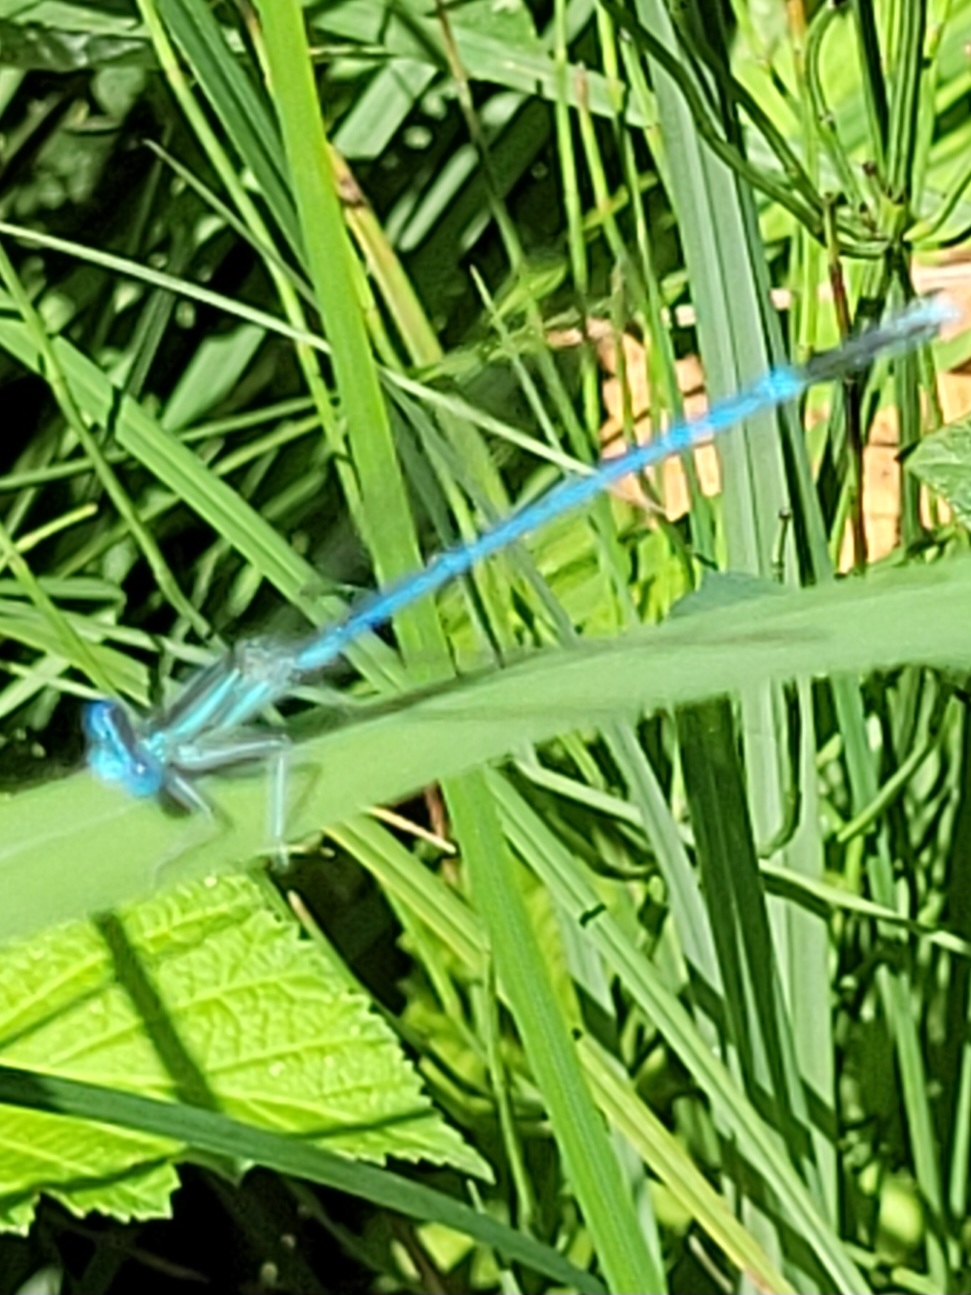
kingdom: Animalia
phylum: Arthropoda
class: Insecta
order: Odonata
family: Platycnemididae
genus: Platycnemis
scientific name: Platycnemis pennipes
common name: White-legged damselfly
